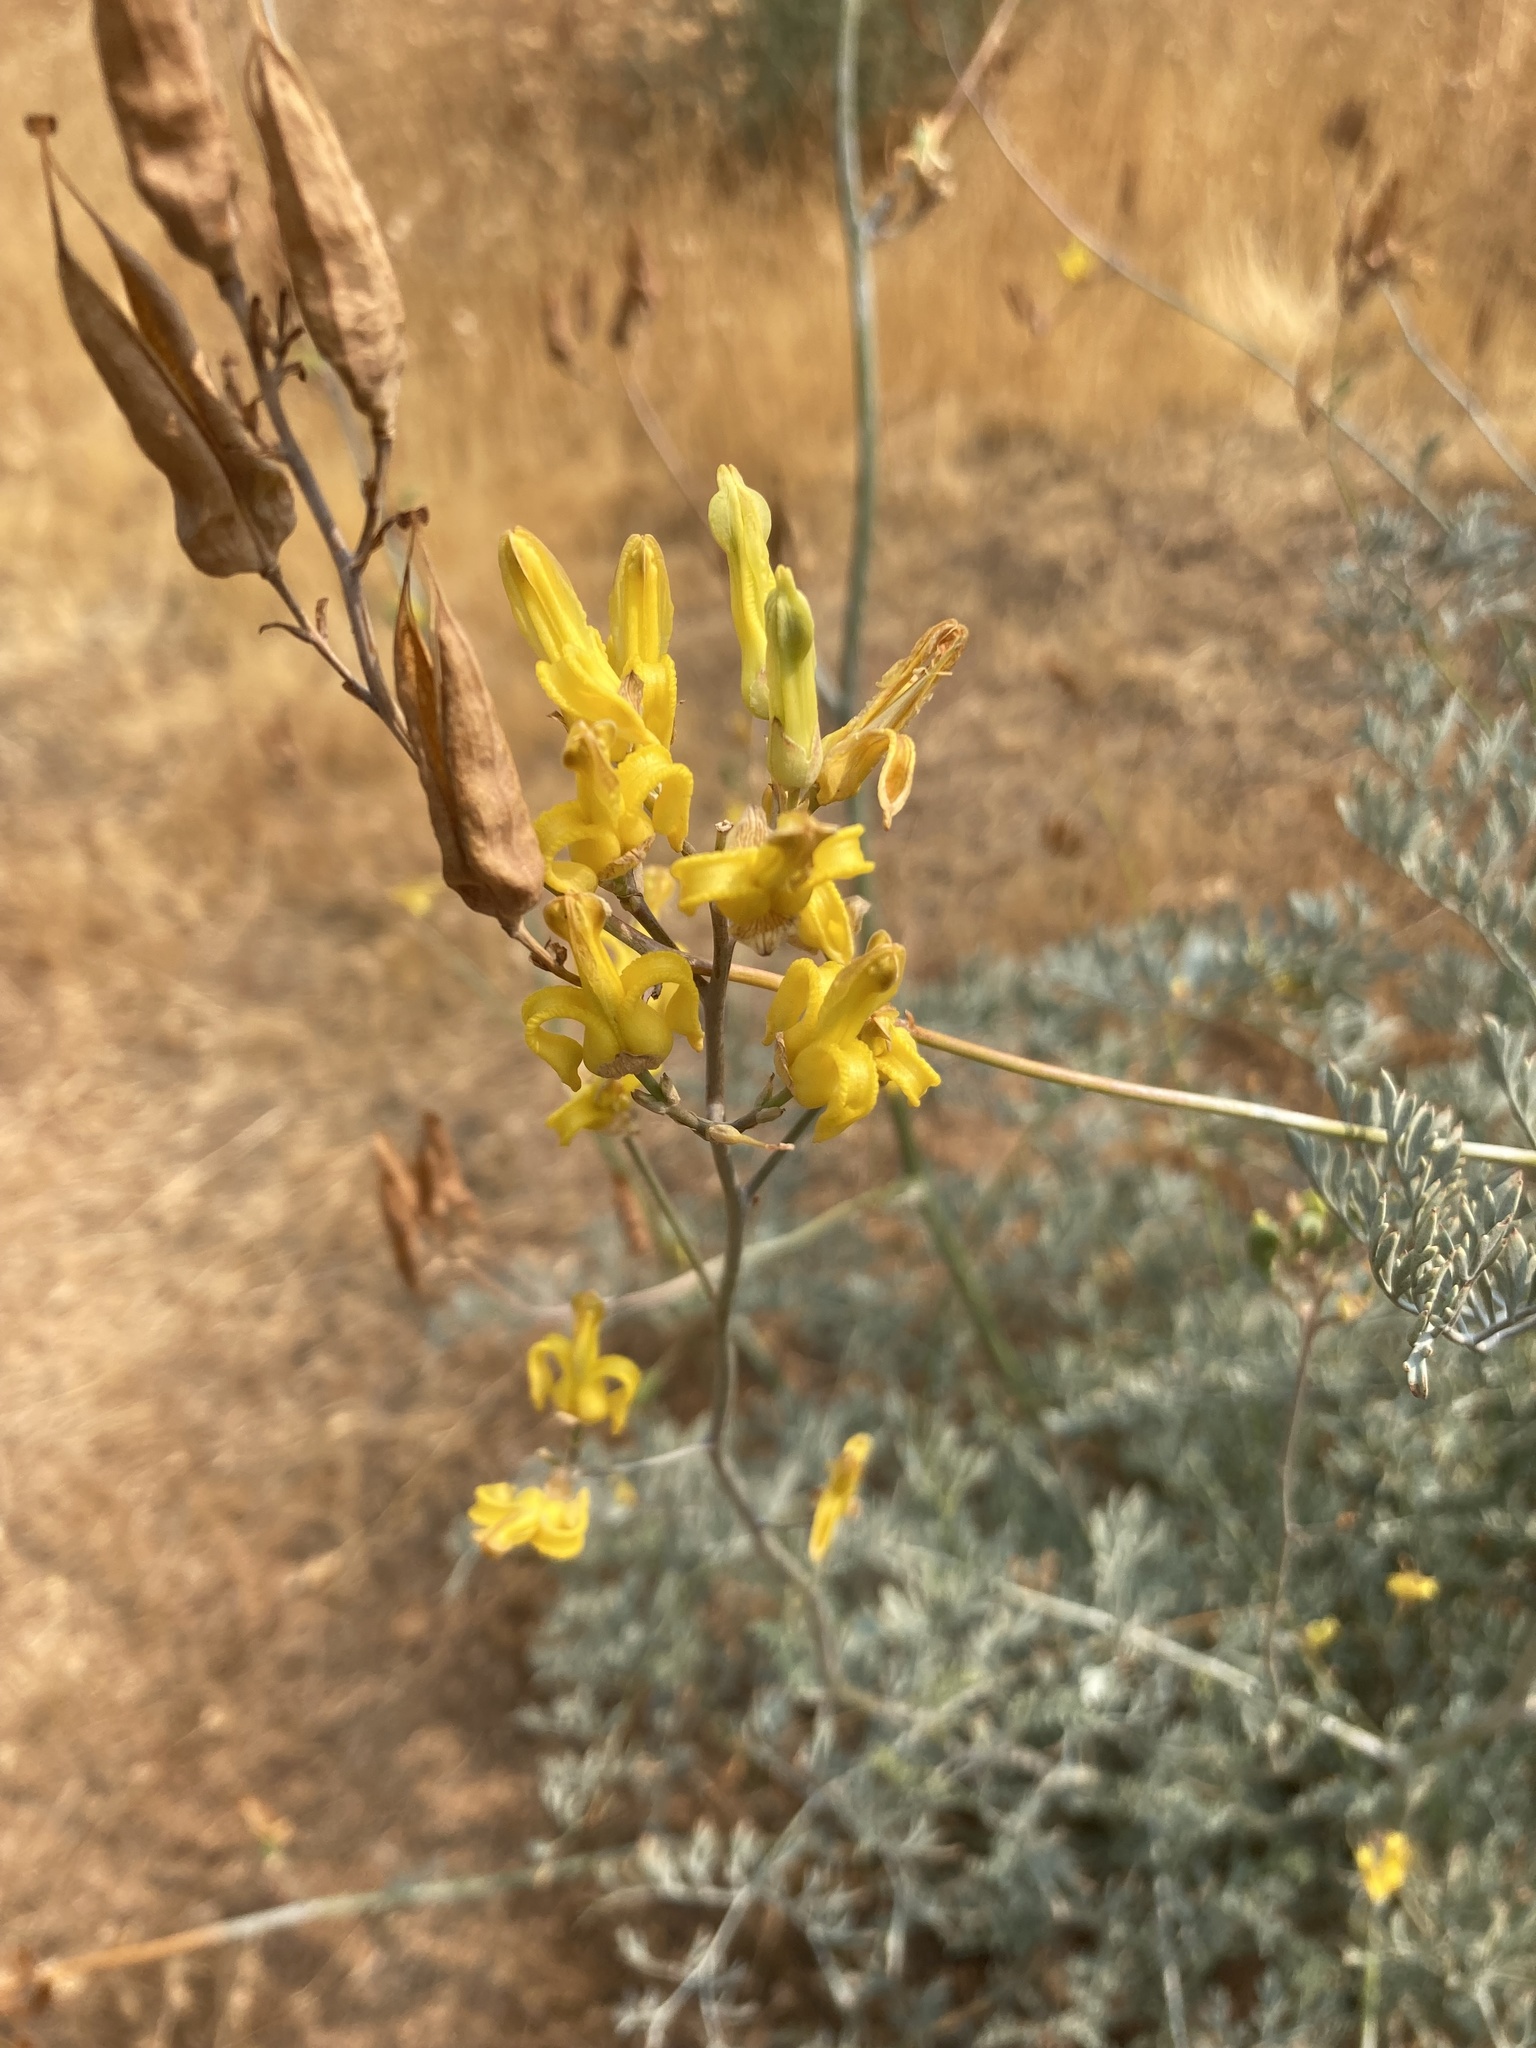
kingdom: Plantae
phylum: Tracheophyta
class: Magnoliopsida
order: Ranunculales
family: Papaveraceae
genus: Ehrendorferia
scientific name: Ehrendorferia chrysantha
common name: Golden eardrops
